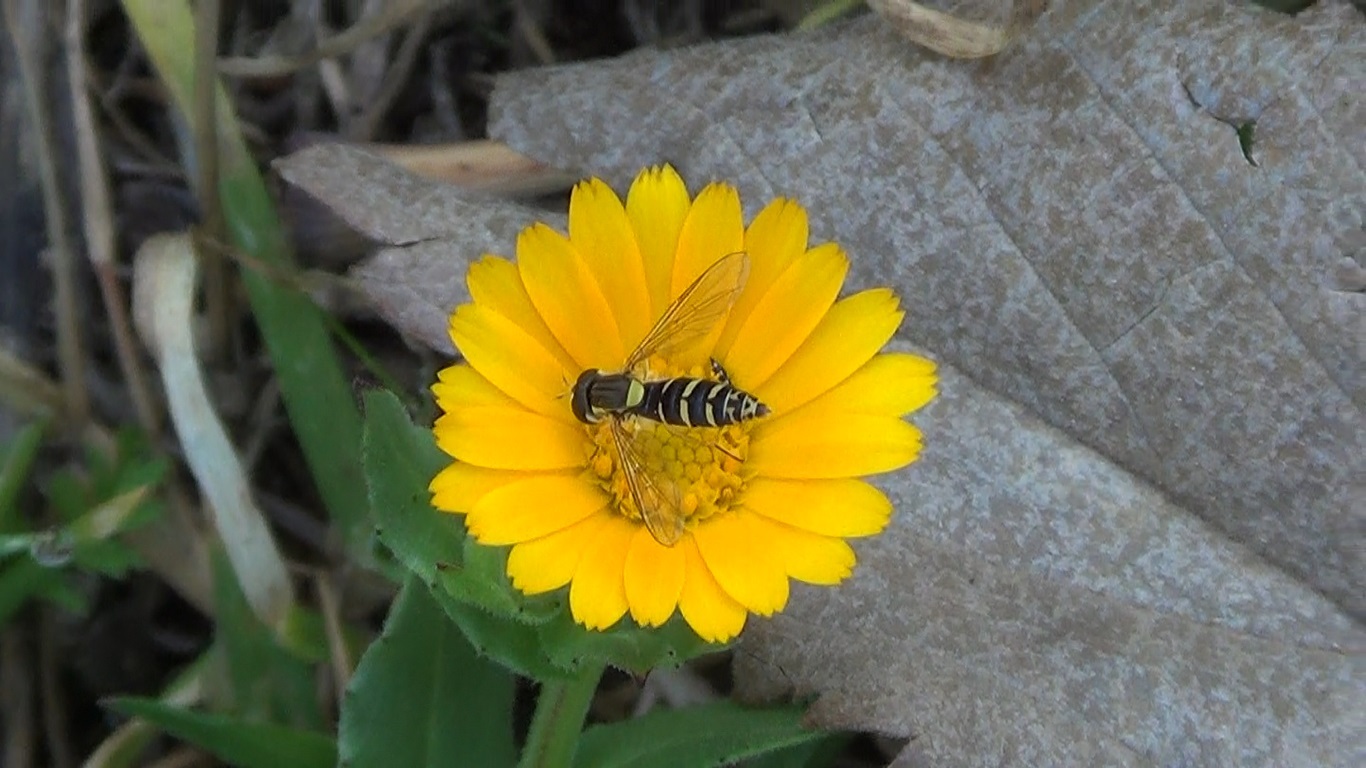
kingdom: Animalia
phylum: Arthropoda
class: Insecta
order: Diptera
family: Syrphidae
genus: Sphaerophoria
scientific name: Sphaerophoria
